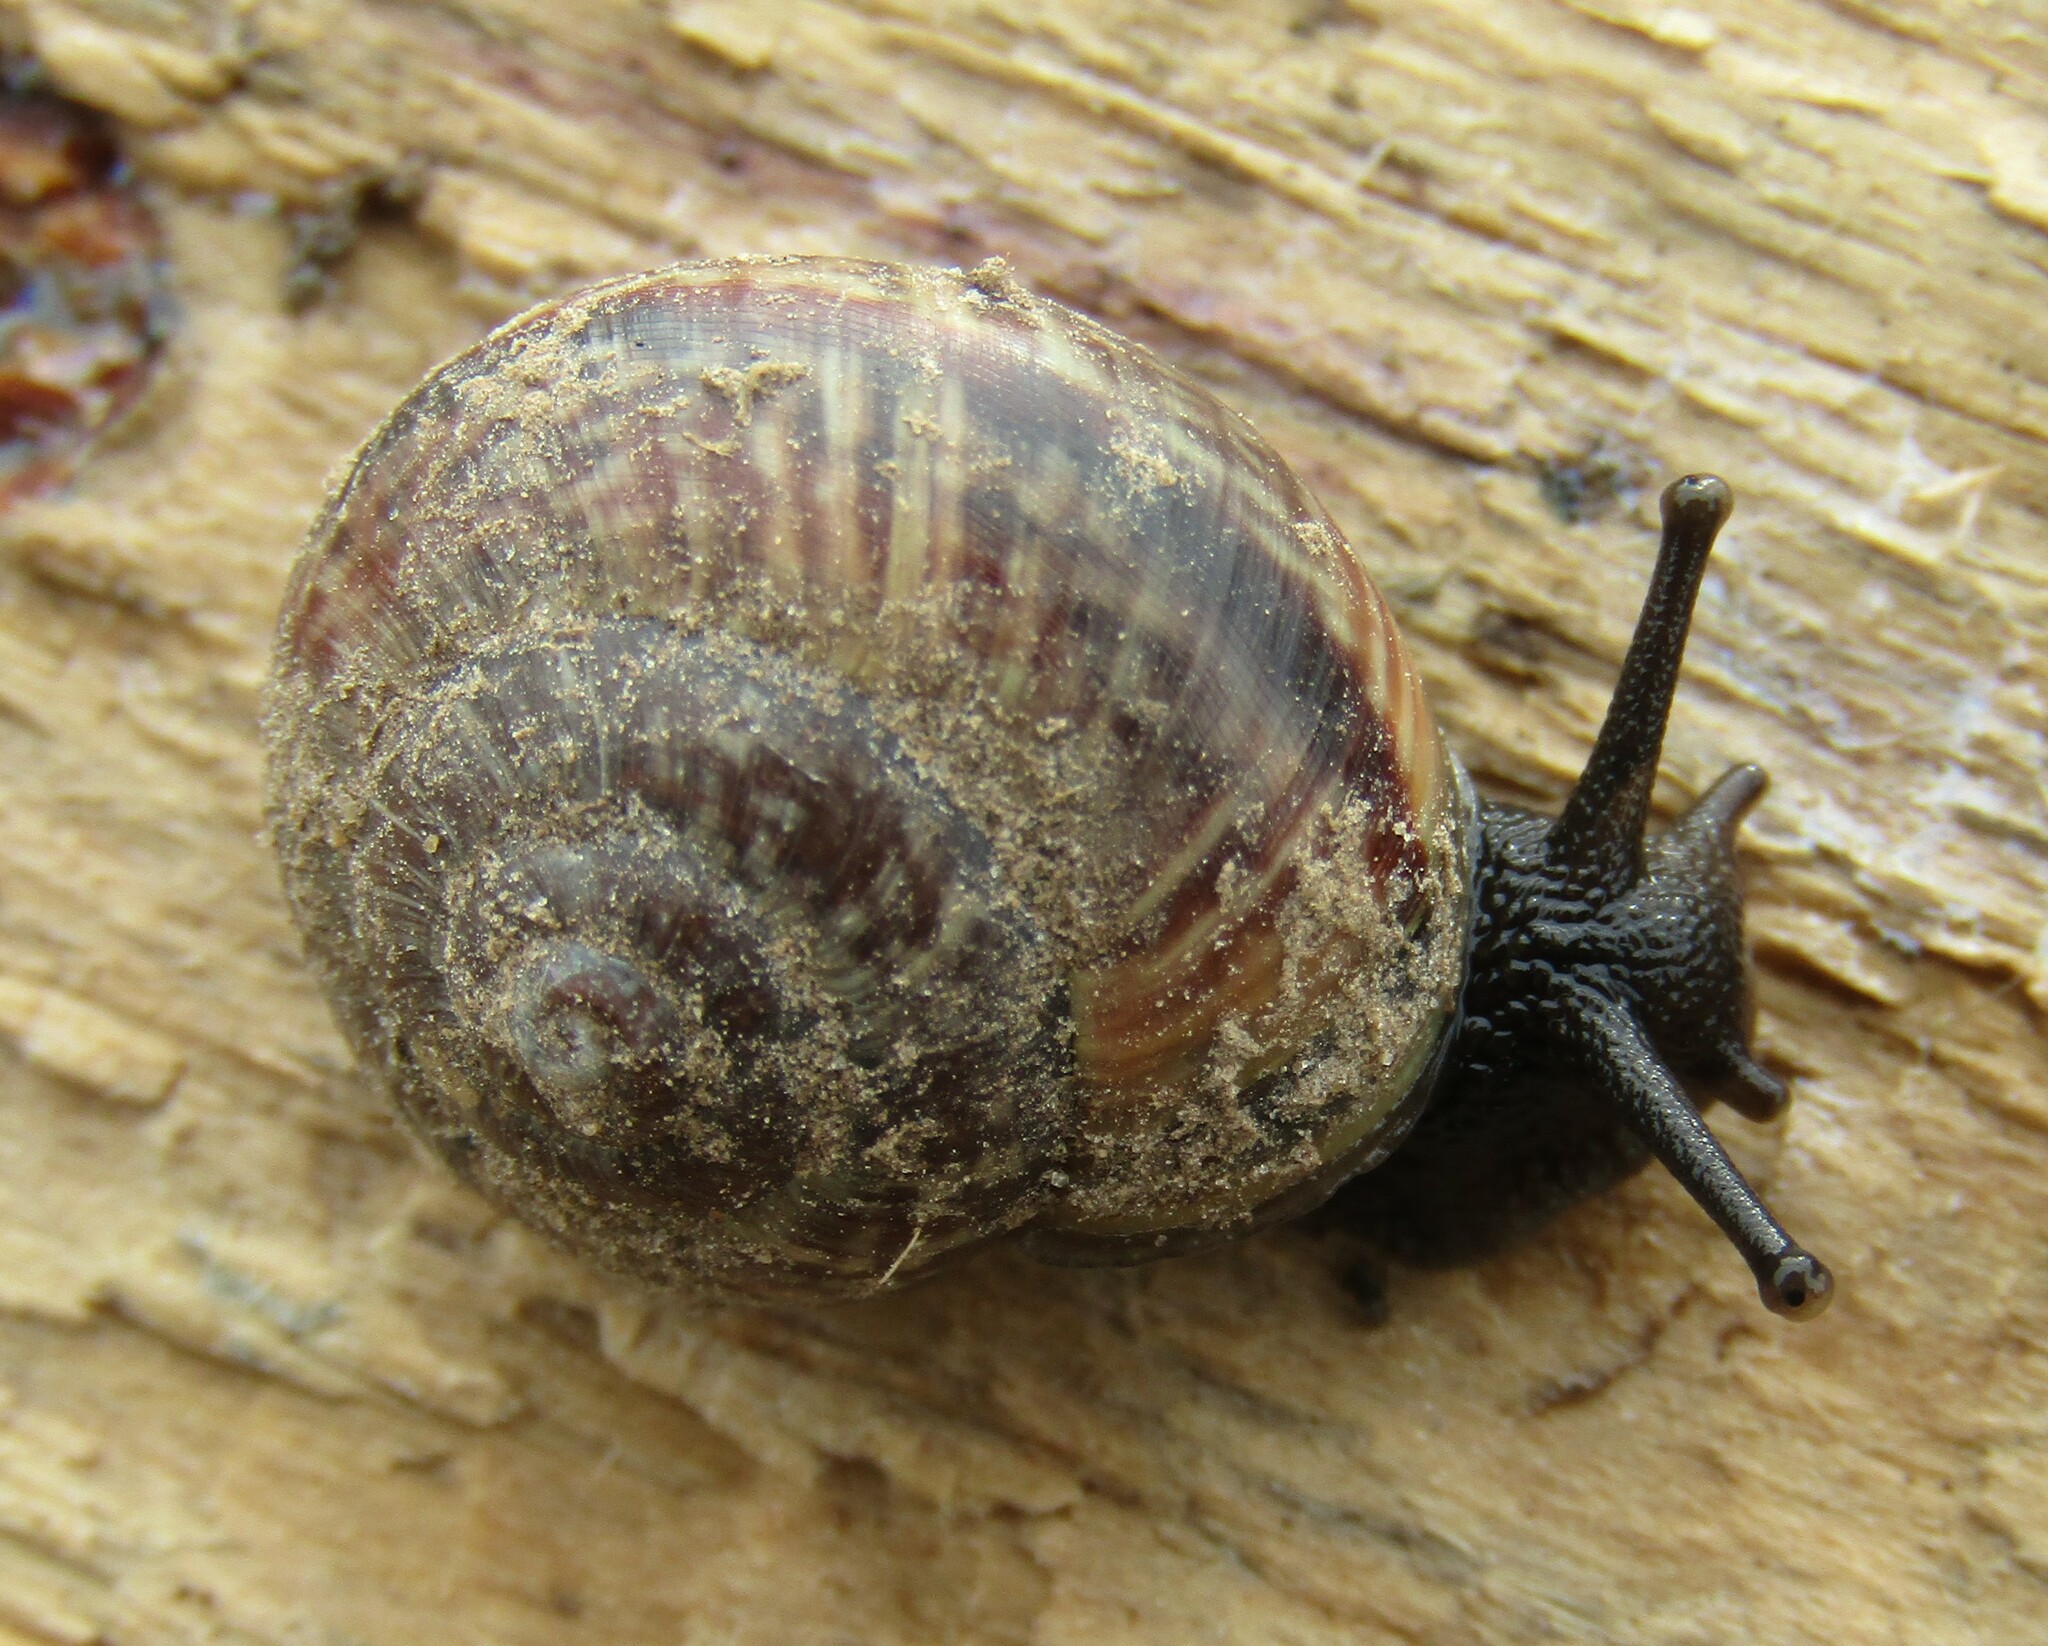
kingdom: Animalia
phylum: Mollusca
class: Gastropoda
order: Stylommatophora
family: Helicidae
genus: Arianta
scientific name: Arianta arbustorum
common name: Copse snail
